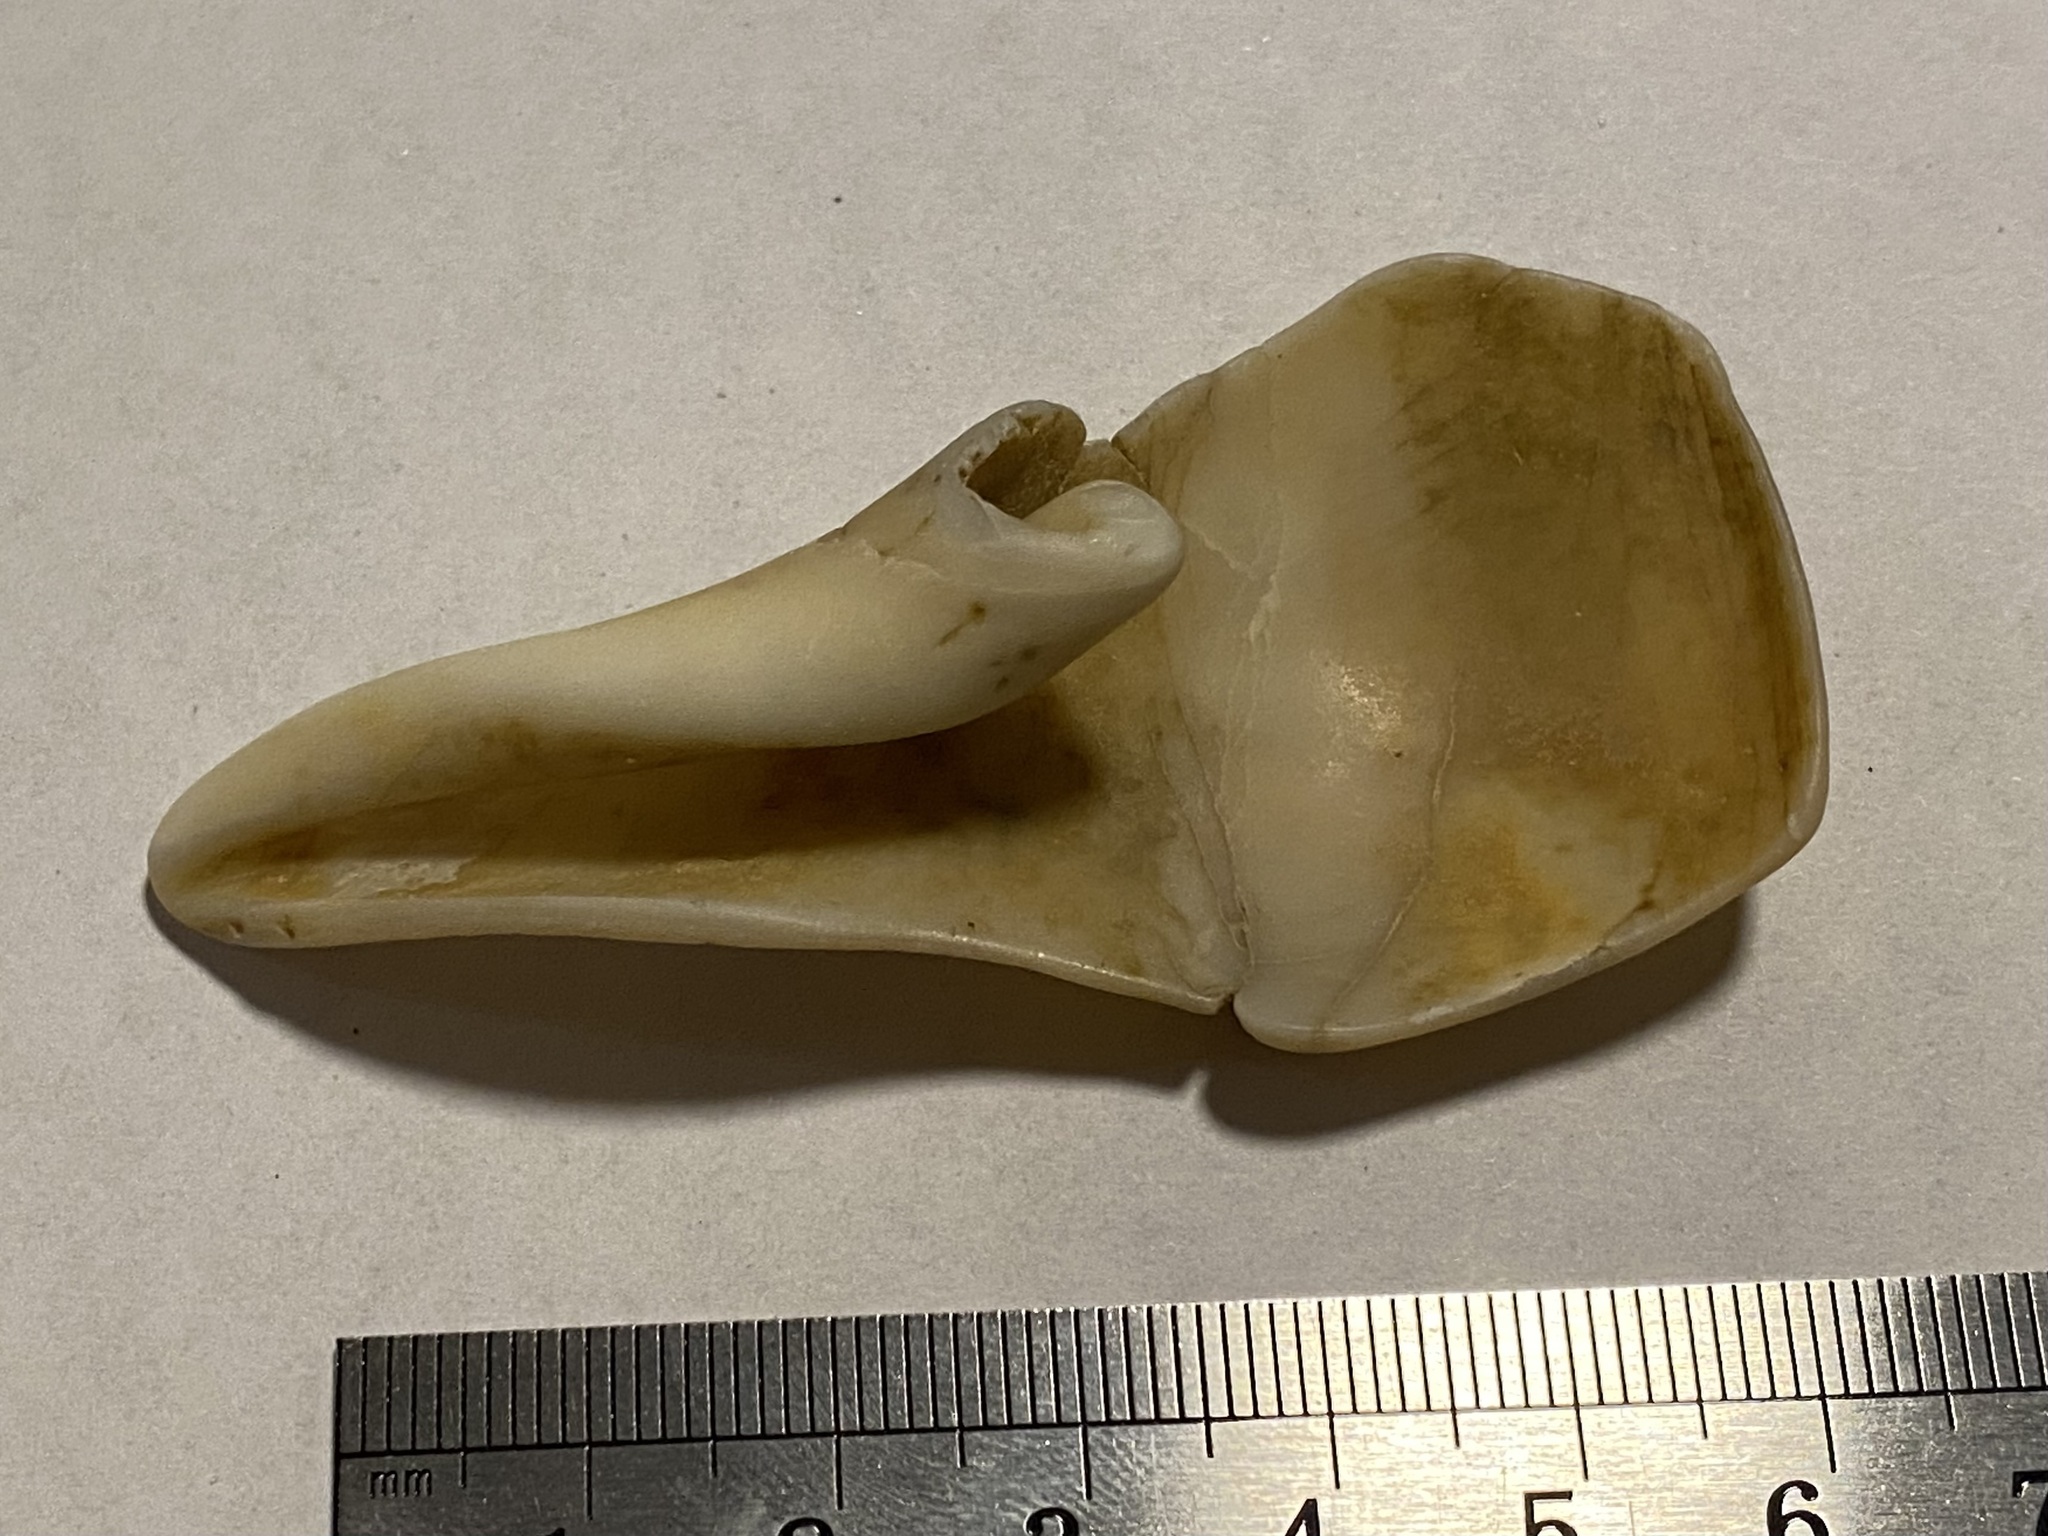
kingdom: Animalia
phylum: Mollusca
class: Gastropoda
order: Neogastropoda
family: Busyconidae
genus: Busycotypus
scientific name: Busycotypus canaliculatus
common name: Channeled whelk
